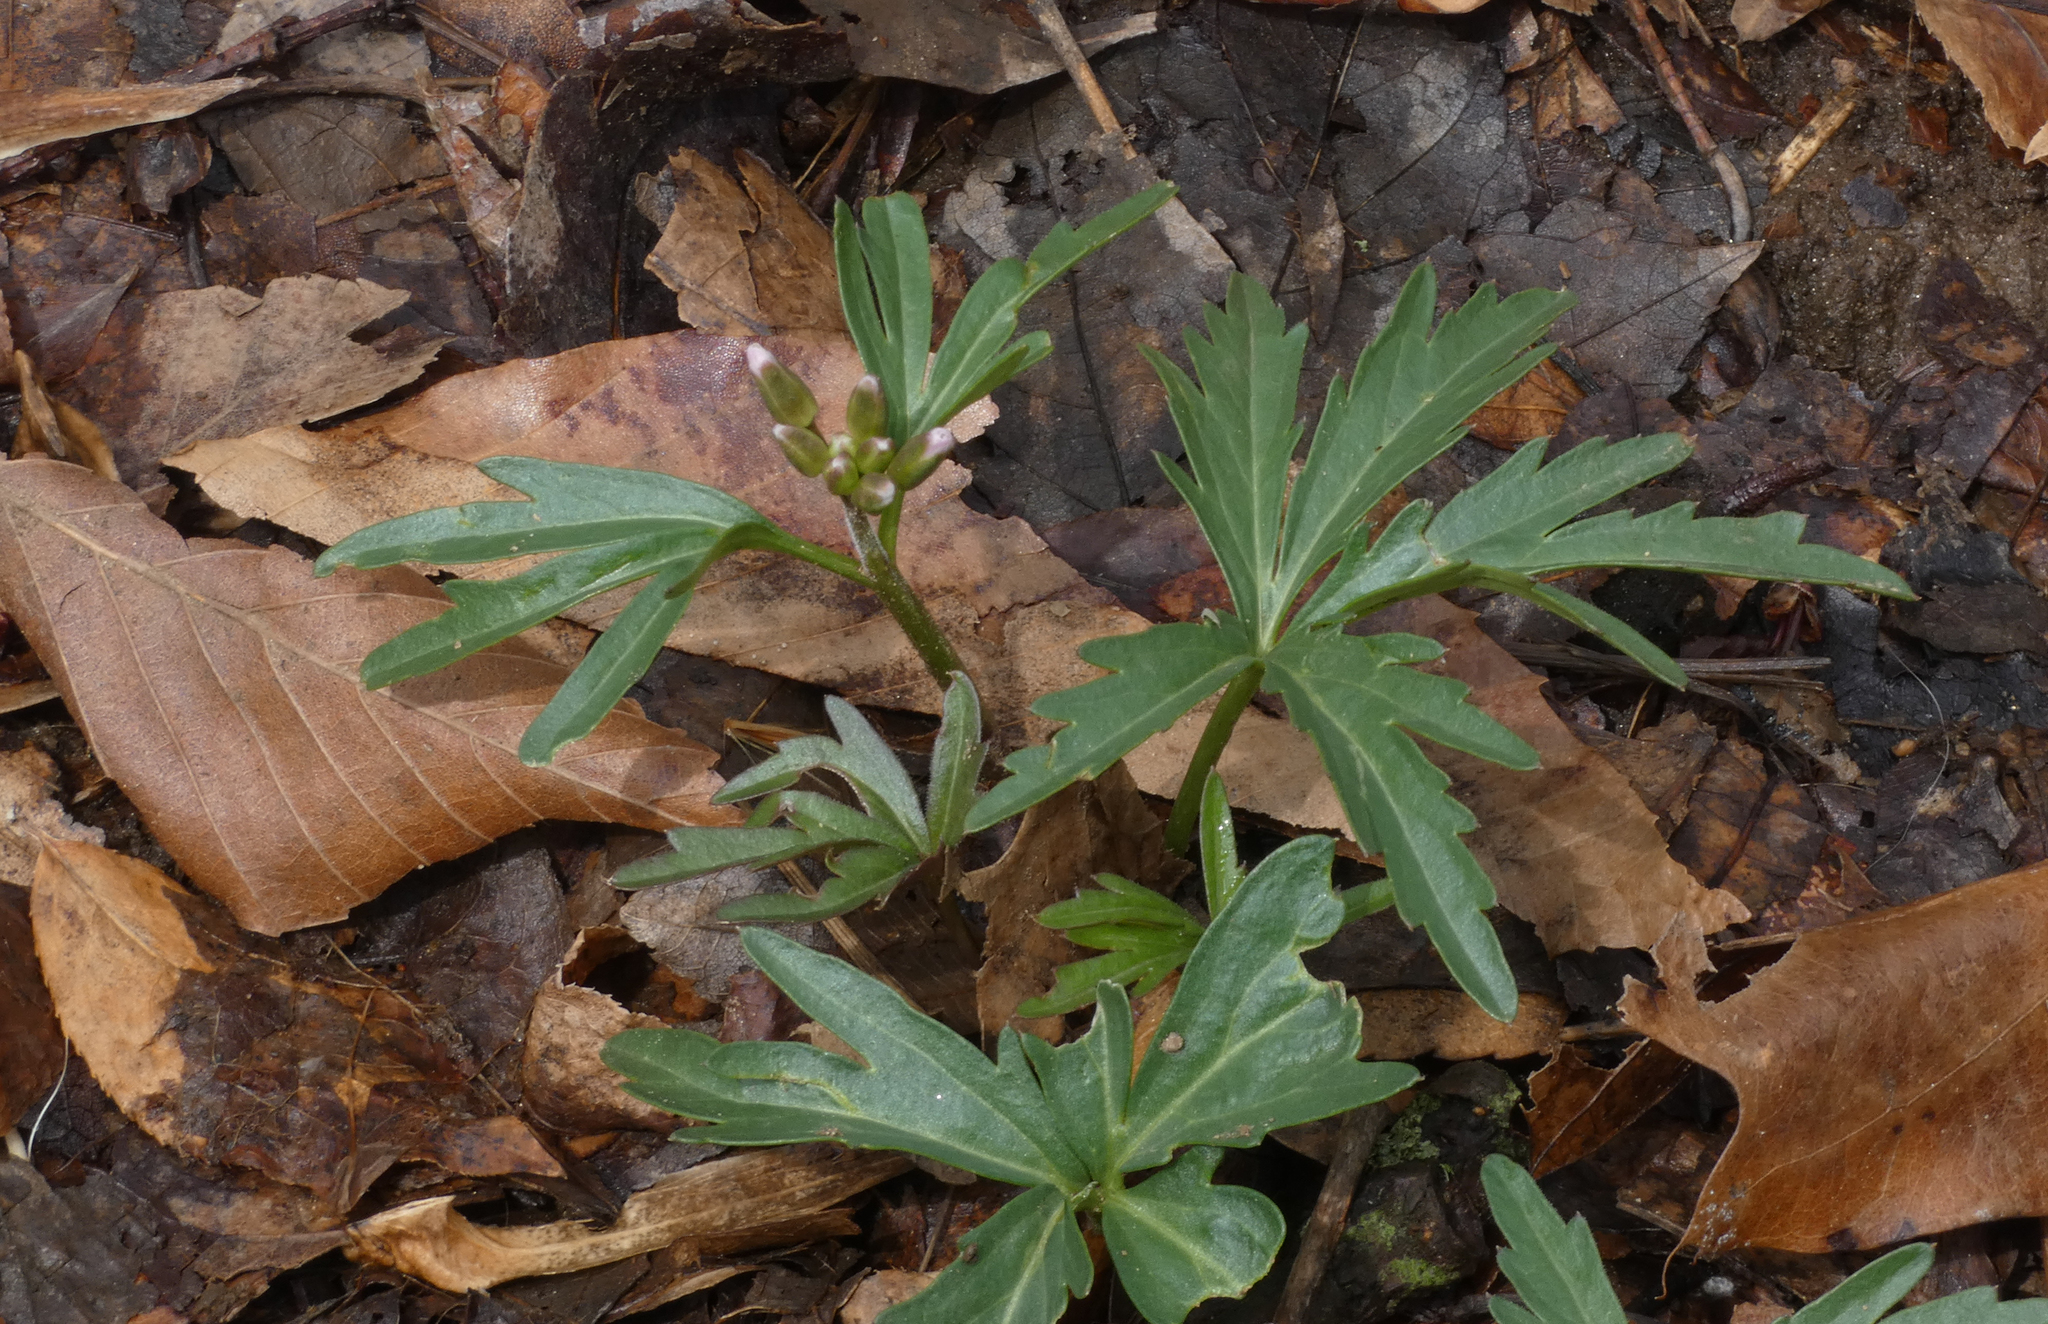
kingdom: Plantae
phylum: Tracheophyta
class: Magnoliopsida
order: Brassicales
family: Brassicaceae
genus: Cardamine
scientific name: Cardamine concatenata
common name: Cut-leaf toothcup
